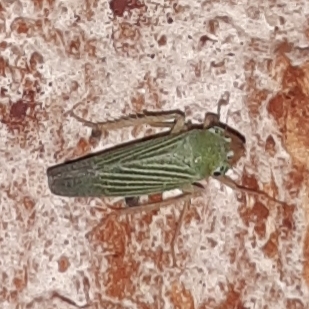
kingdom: Animalia
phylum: Arthropoda
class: Insecta
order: Hemiptera
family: Cicadellidae
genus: Xyphon
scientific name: Xyphon flaviceps
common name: Yellowheaded leafhopper
